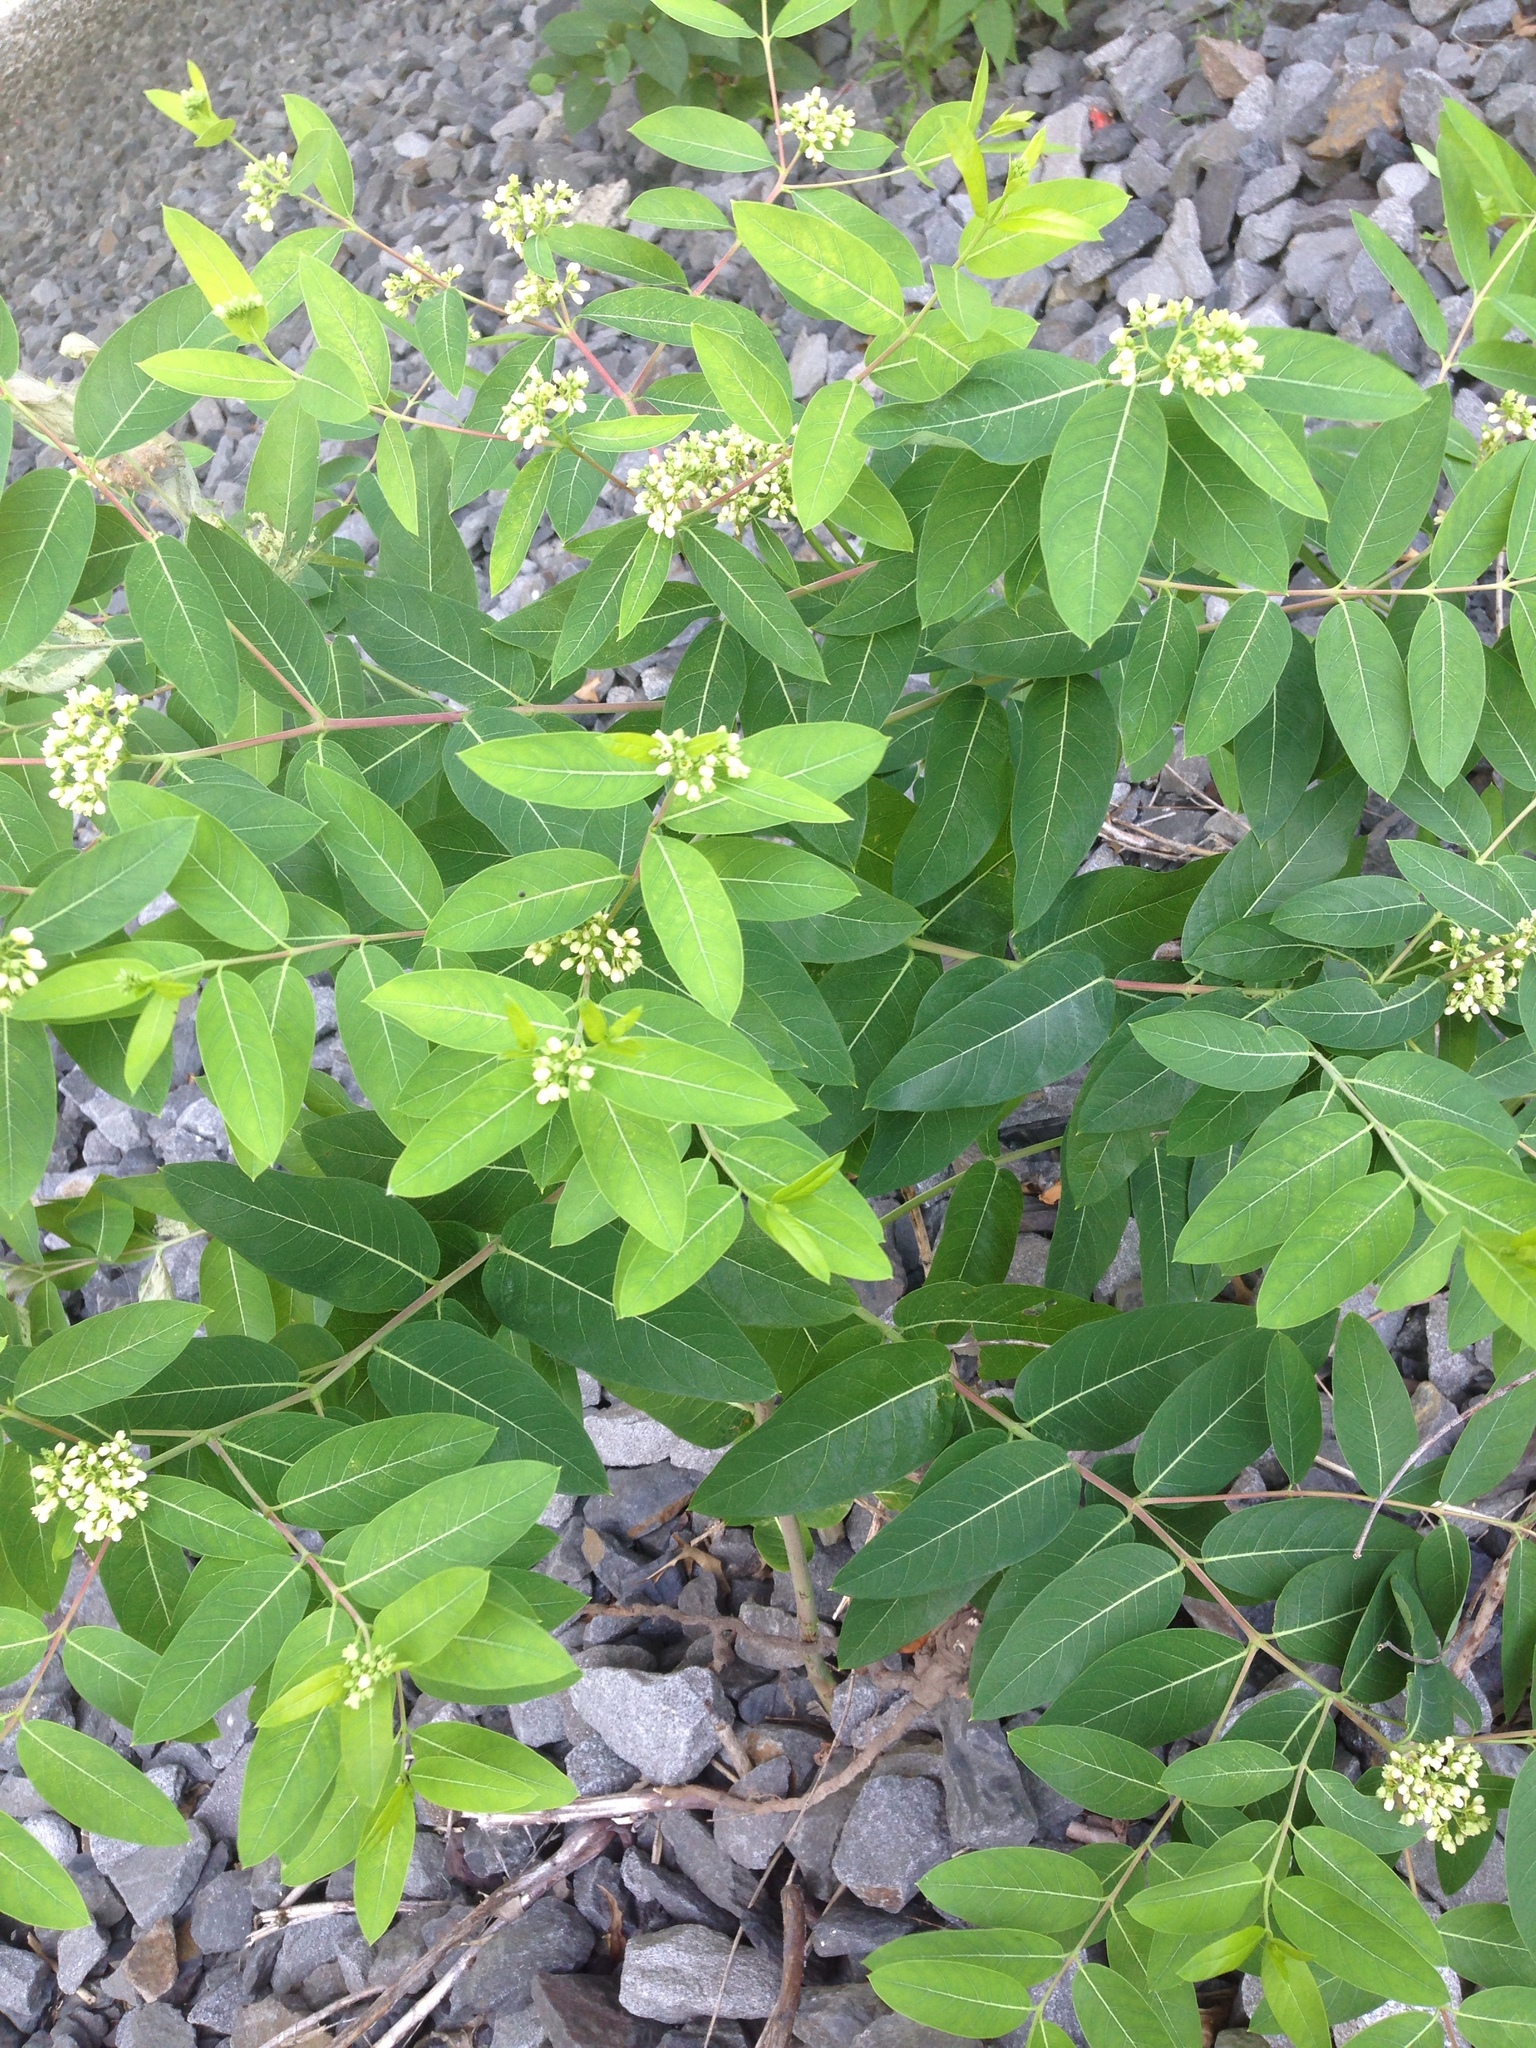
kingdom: Plantae
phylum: Tracheophyta
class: Magnoliopsida
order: Gentianales
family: Apocynaceae
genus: Apocynum
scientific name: Apocynum cannabinum
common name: Hemp dogbane
